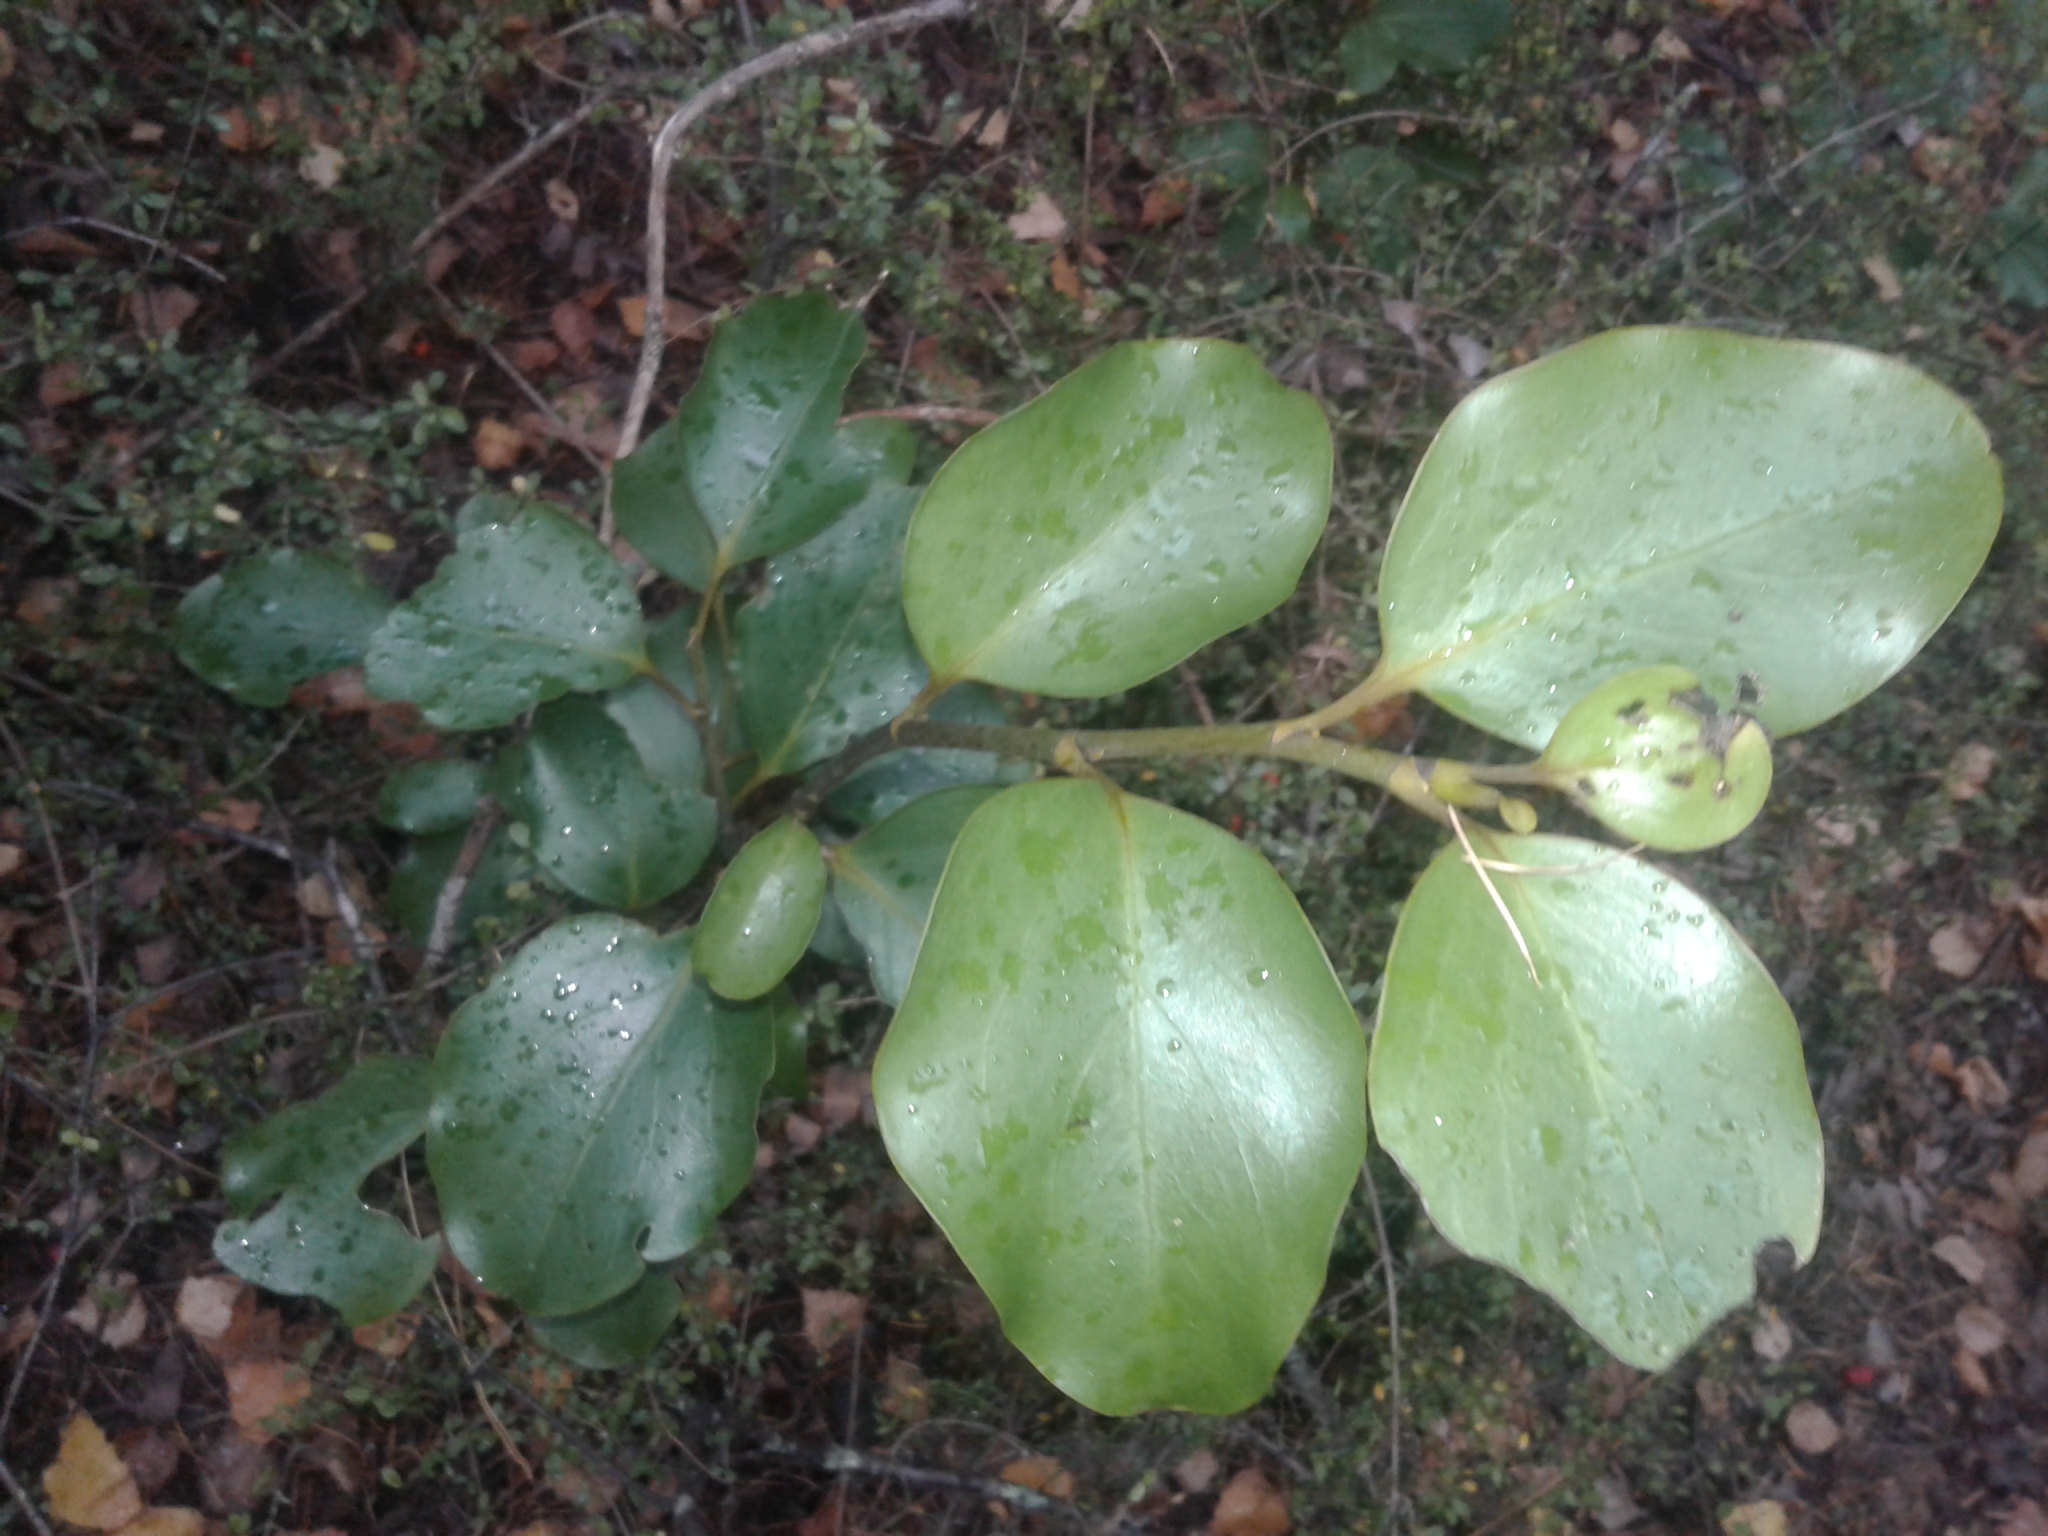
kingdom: Plantae
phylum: Tracheophyta
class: Magnoliopsida
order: Apiales
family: Griseliniaceae
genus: Griselinia
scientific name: Griselinia littoralis
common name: New zealand broadleaf
